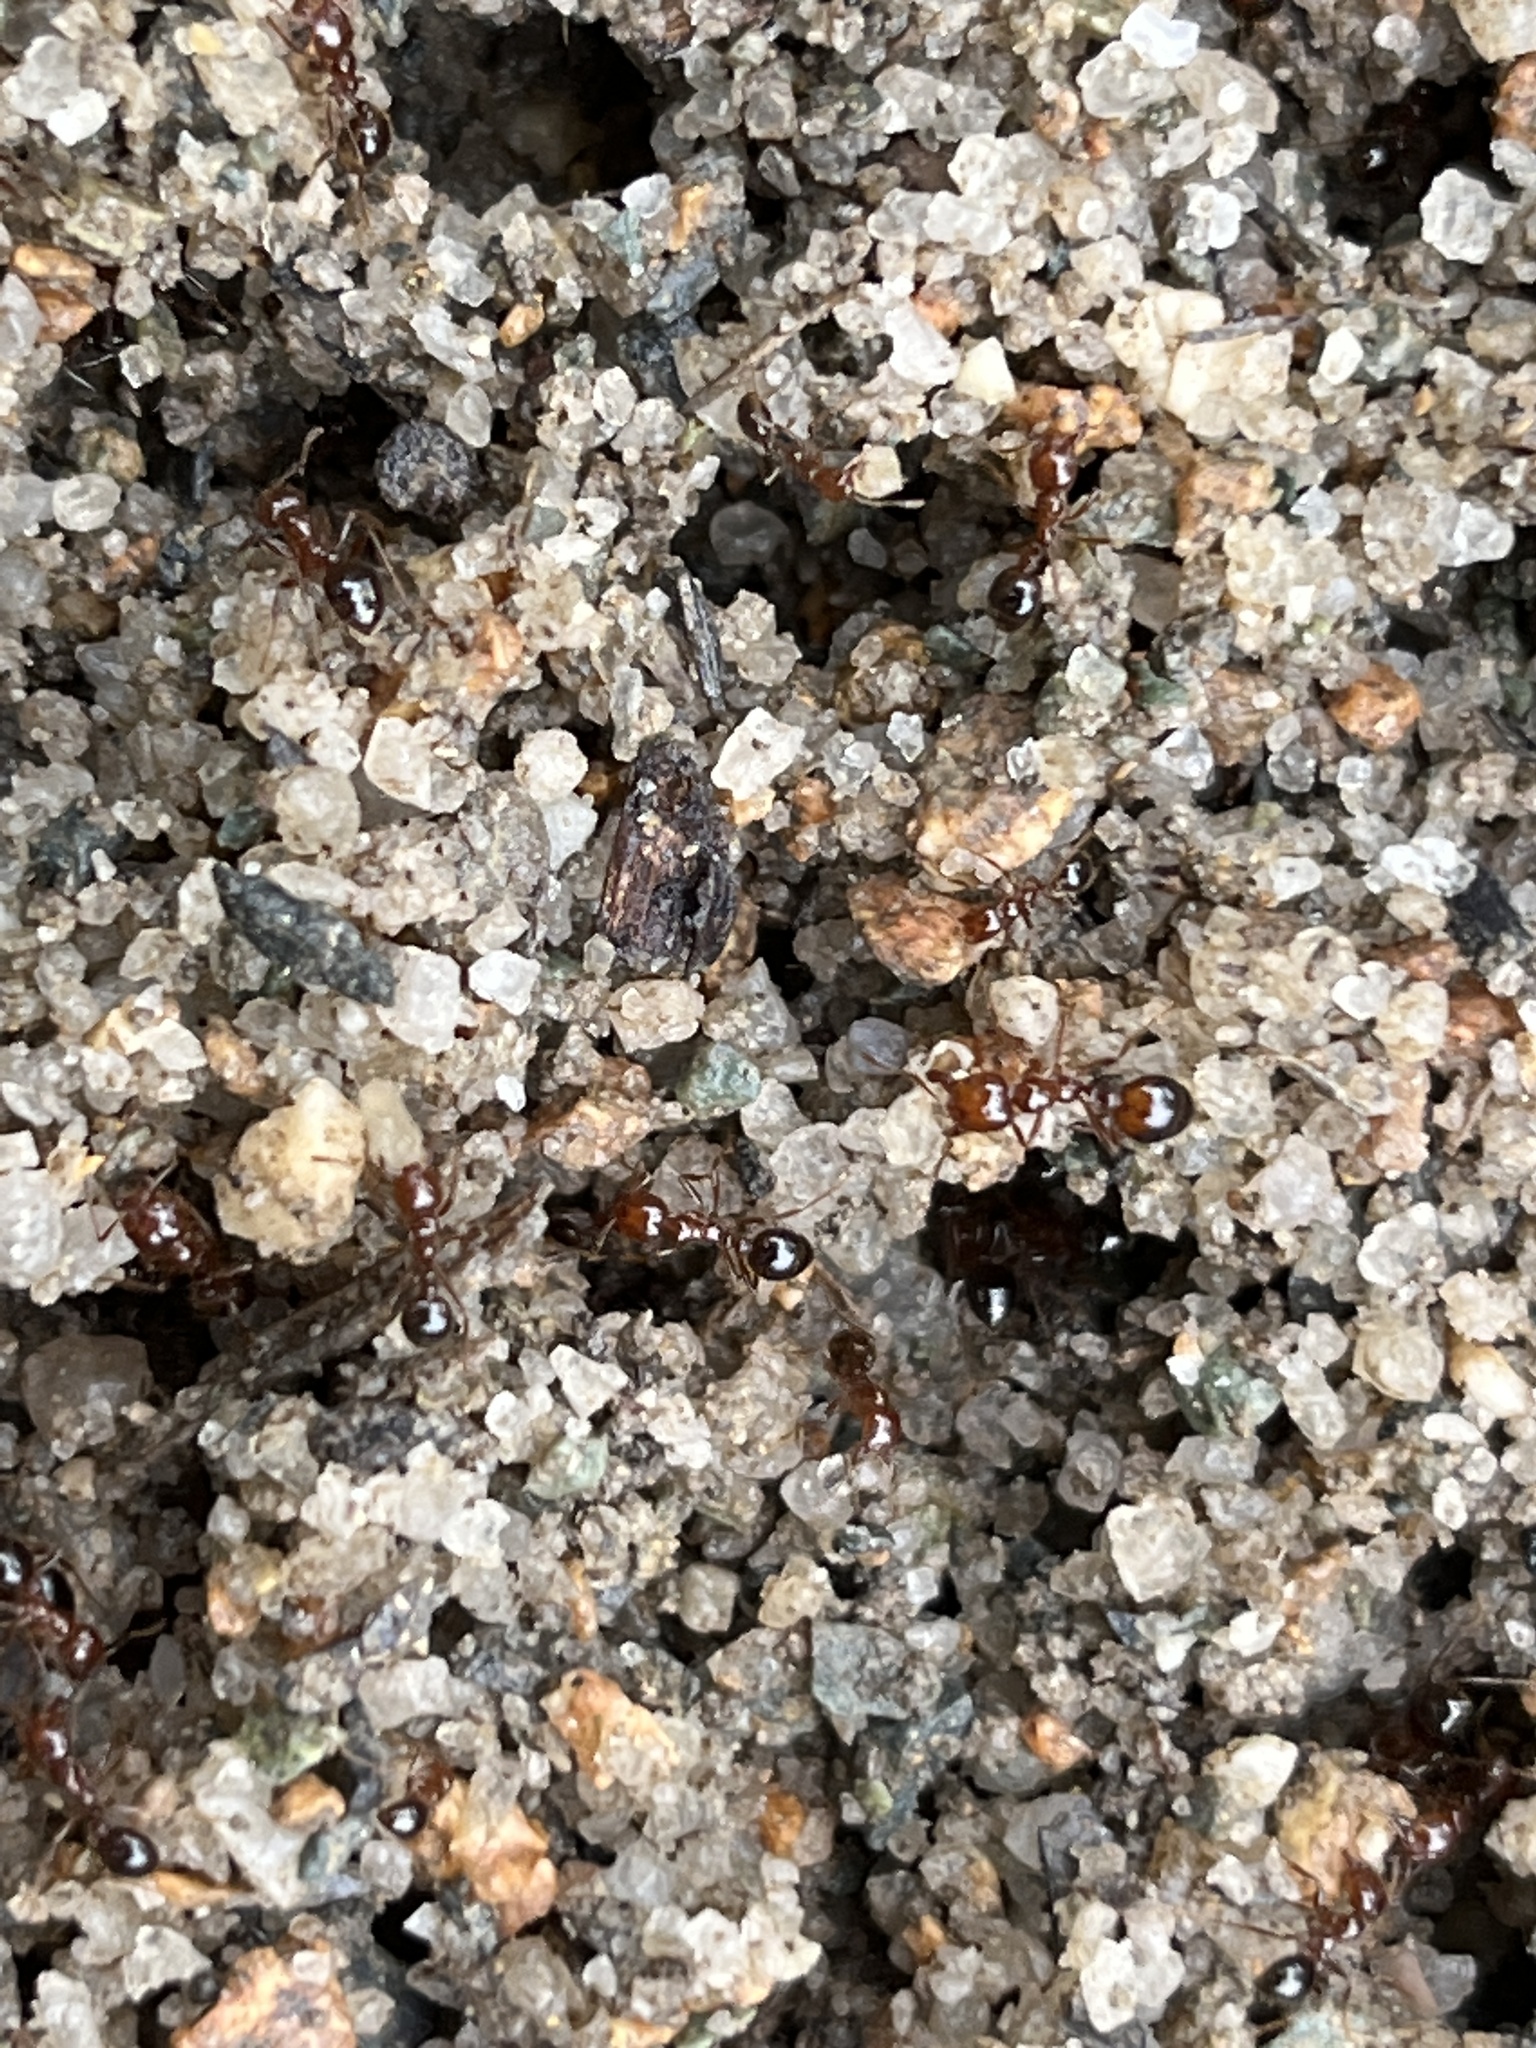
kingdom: Animalia
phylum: Arthropoda
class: Insecta
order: Hymenoptera
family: Formicidae
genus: Solenopsis
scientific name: Solenopsis invicta
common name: Red imported fire ant
